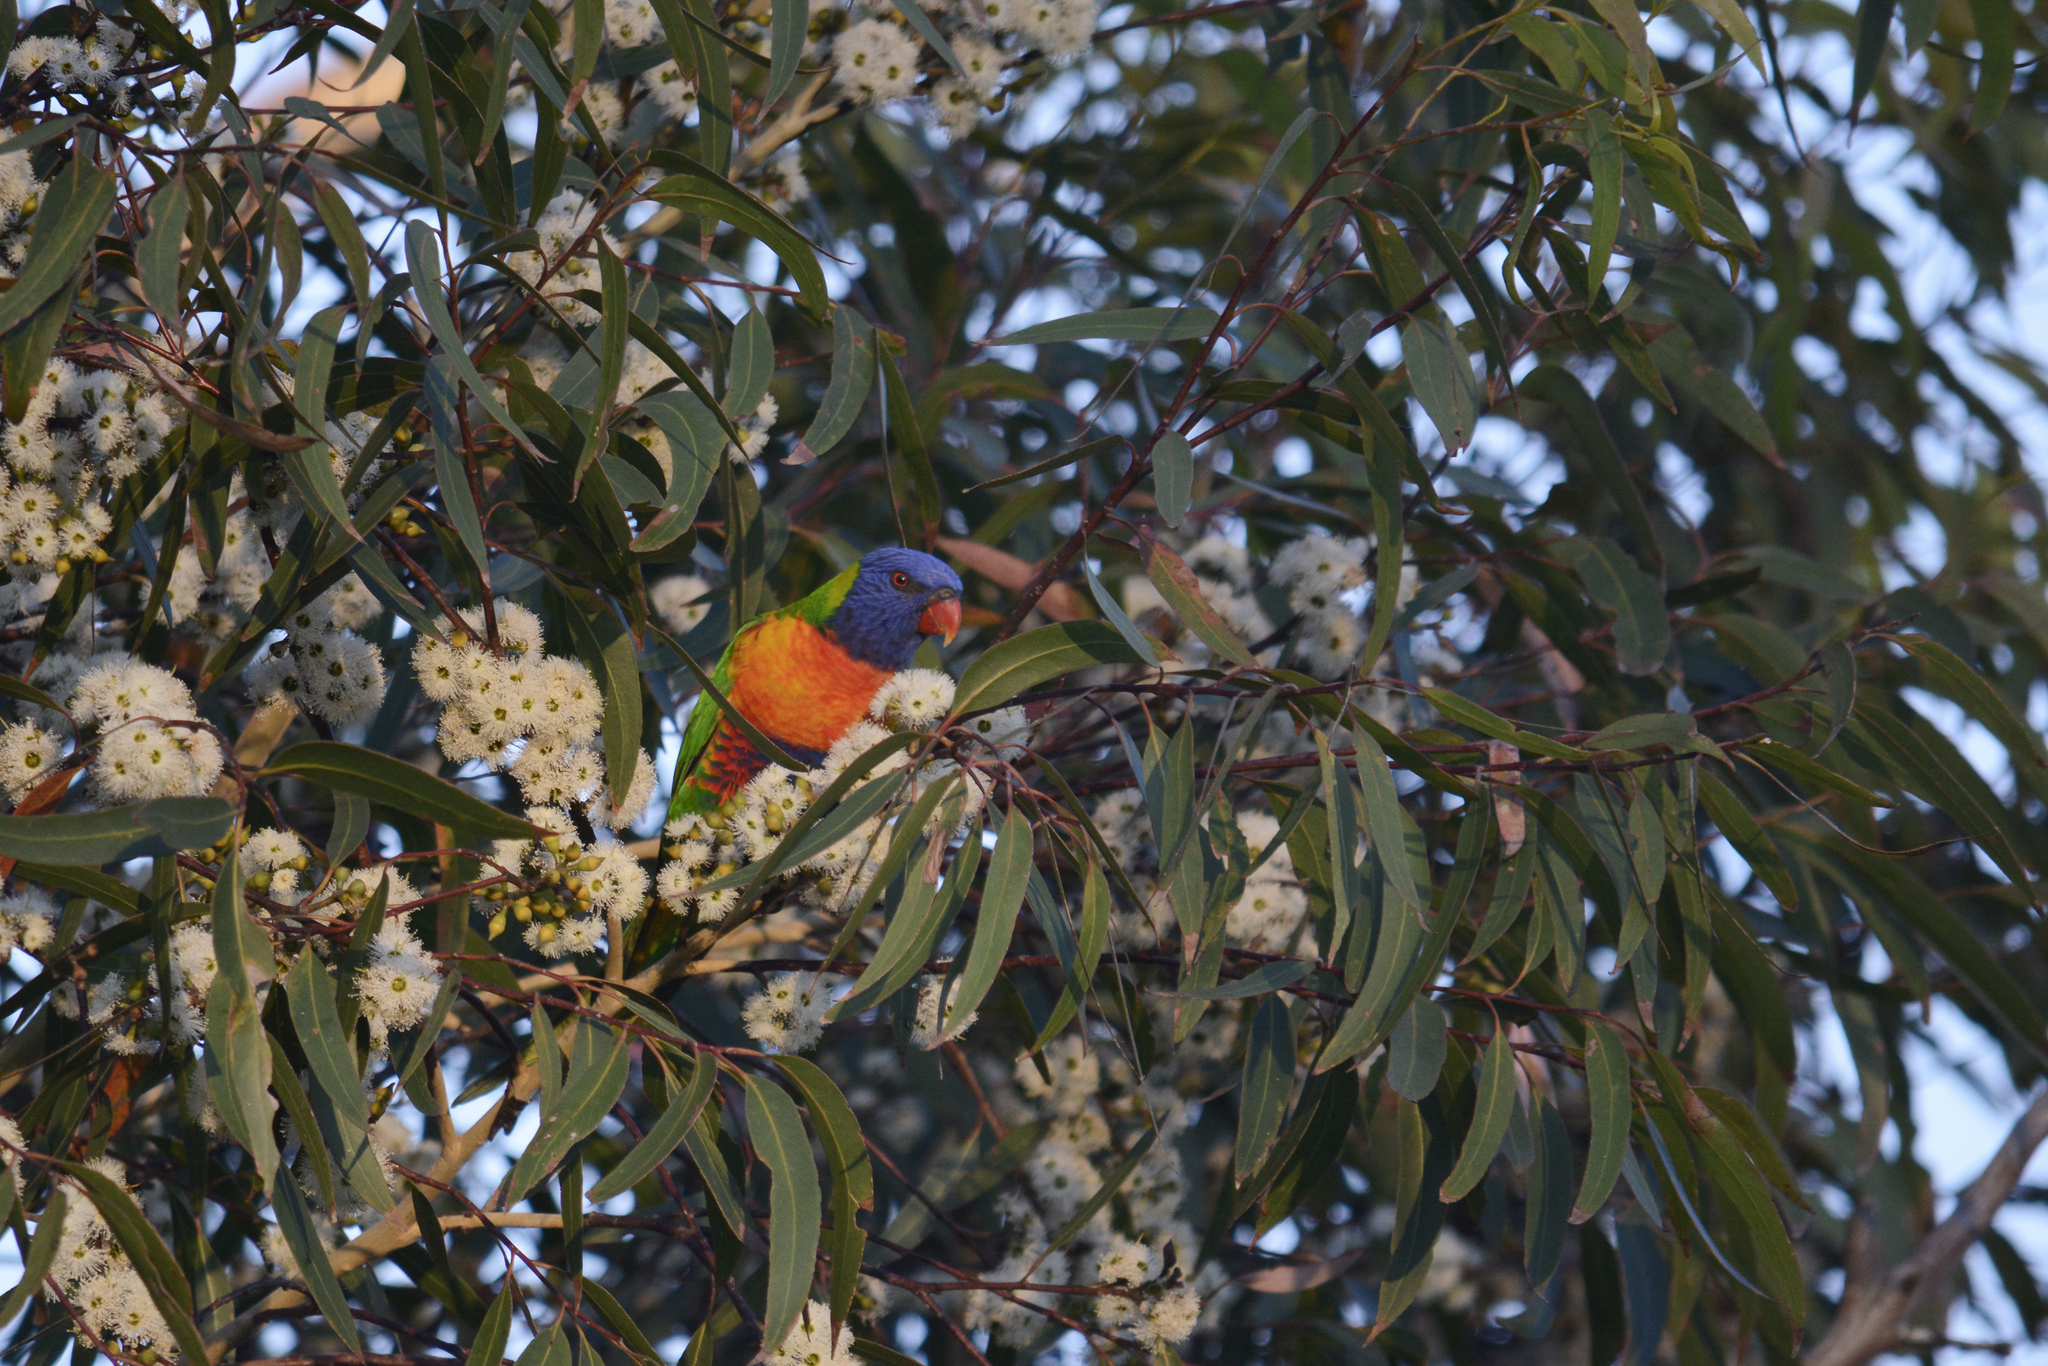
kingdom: Animalia
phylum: Chordata
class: Aves
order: Psittaciformes
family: Psittacidae
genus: Trichoglossus
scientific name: Trichoglossus haematodus
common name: Coconut lorikeet
